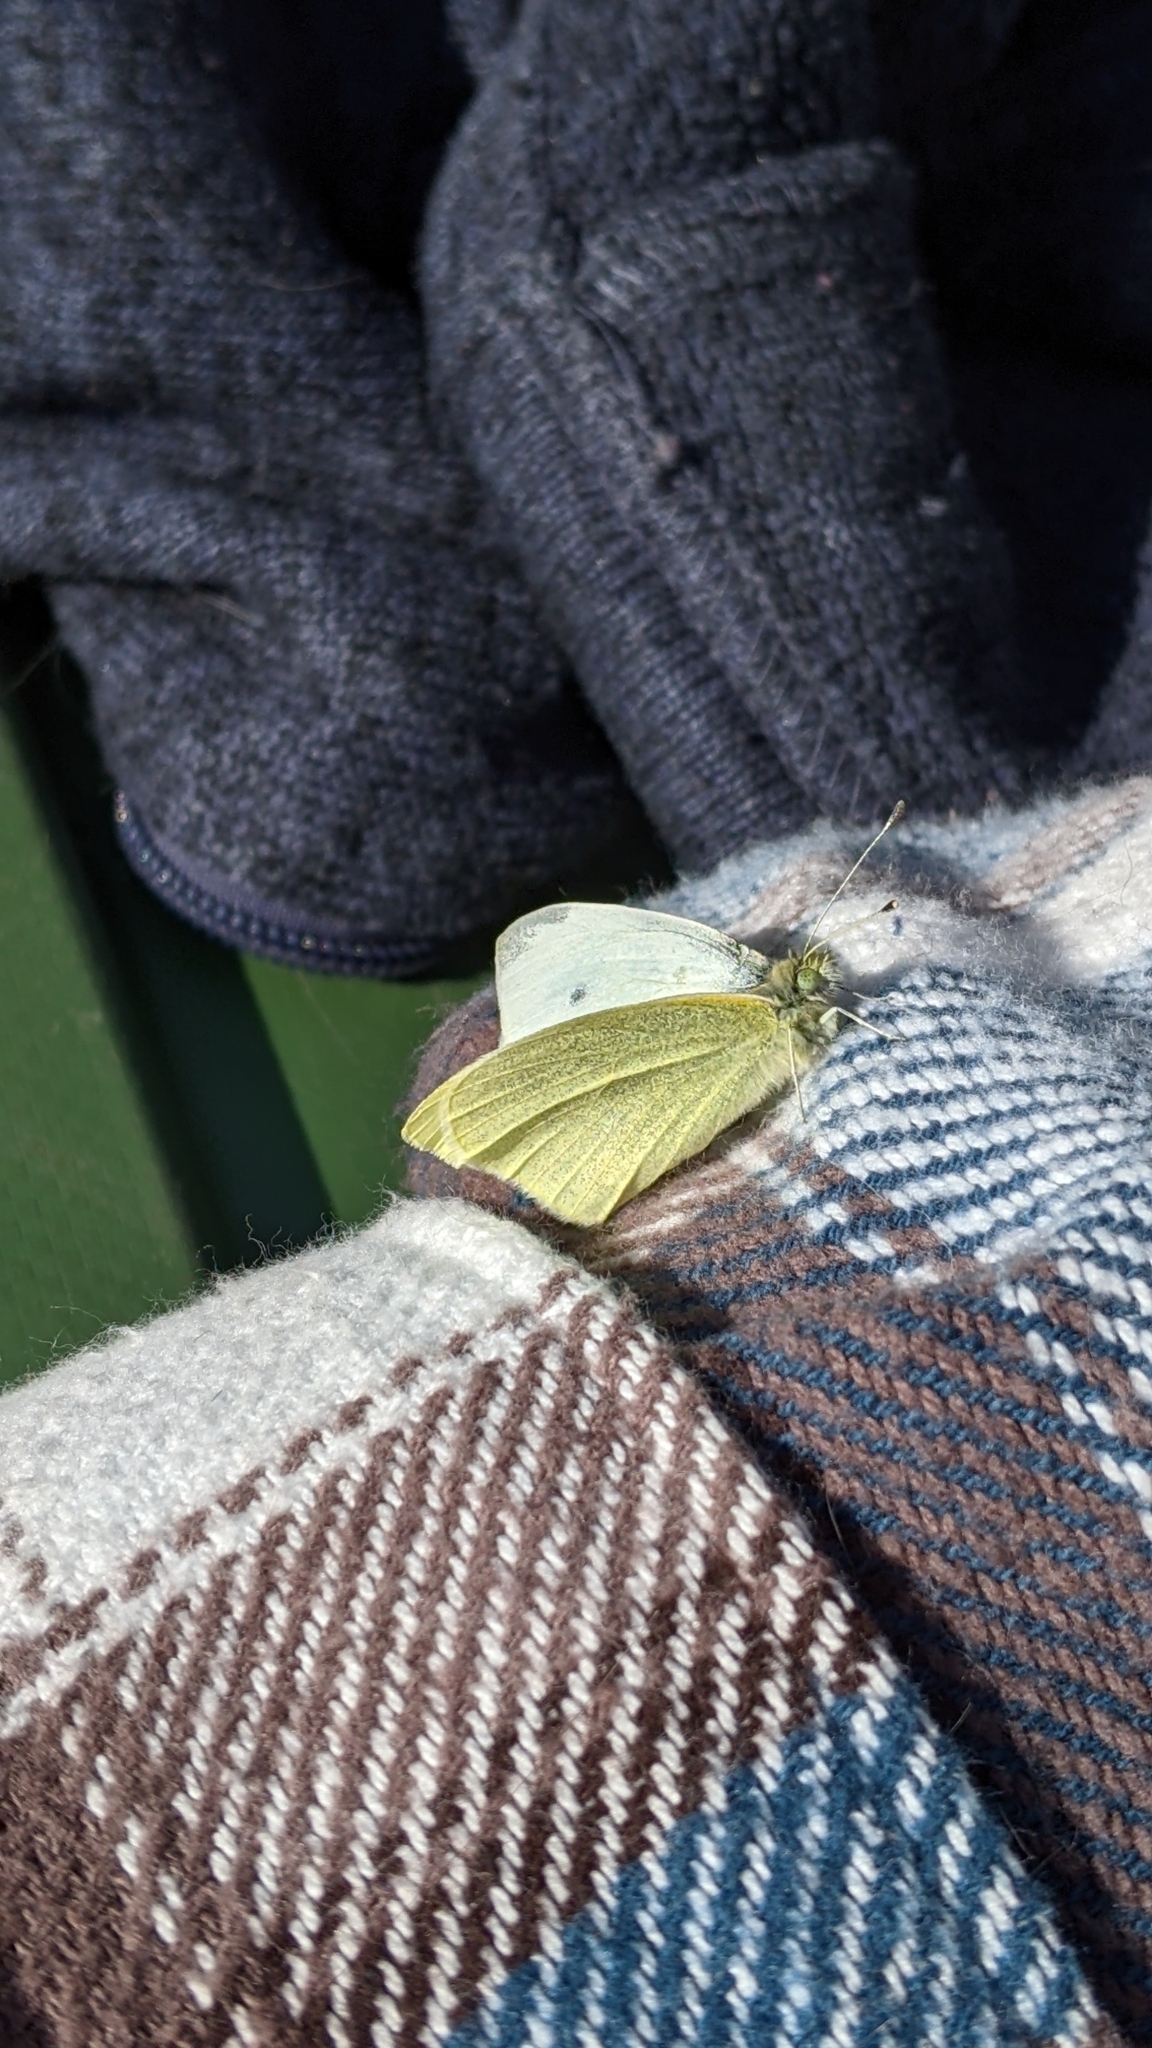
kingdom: Animalia
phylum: Arthropoda
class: Insecta
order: Lepidoptera
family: Pieridae
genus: Pieris
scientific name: Pieris rapae
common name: Small white
